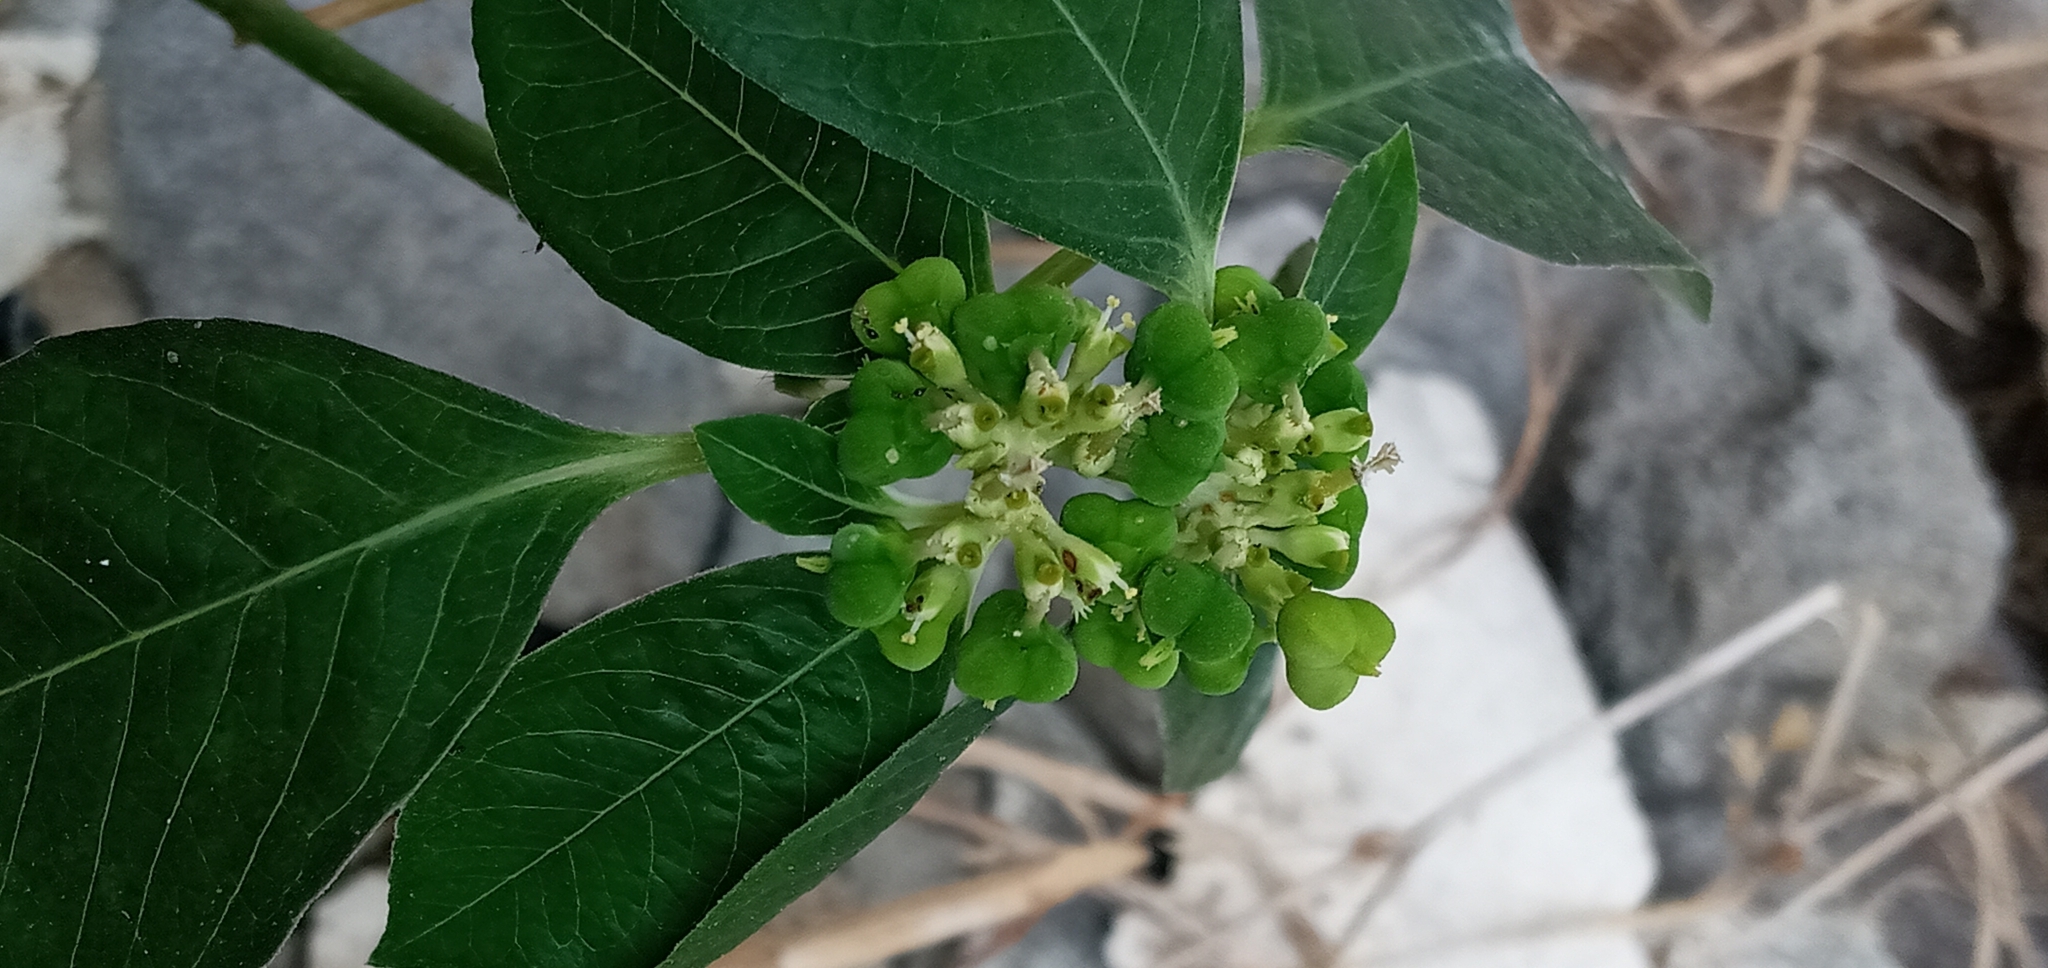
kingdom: Plantae
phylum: Tracheophyta
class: Magnoliopsida
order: Malpighiales
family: Euphorbiaceae
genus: Euphorbia
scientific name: Euphorbia heterophylla
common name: Mexican fireplant
